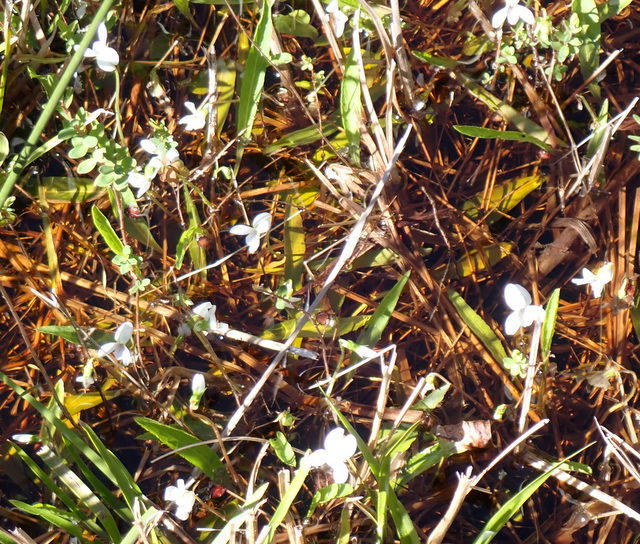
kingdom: Plantae
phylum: Tracheophyta
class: Magnoliopsida
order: Malpighiales
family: Violaceae
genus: Viola
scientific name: Viola lanceolata
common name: Bog white violet
